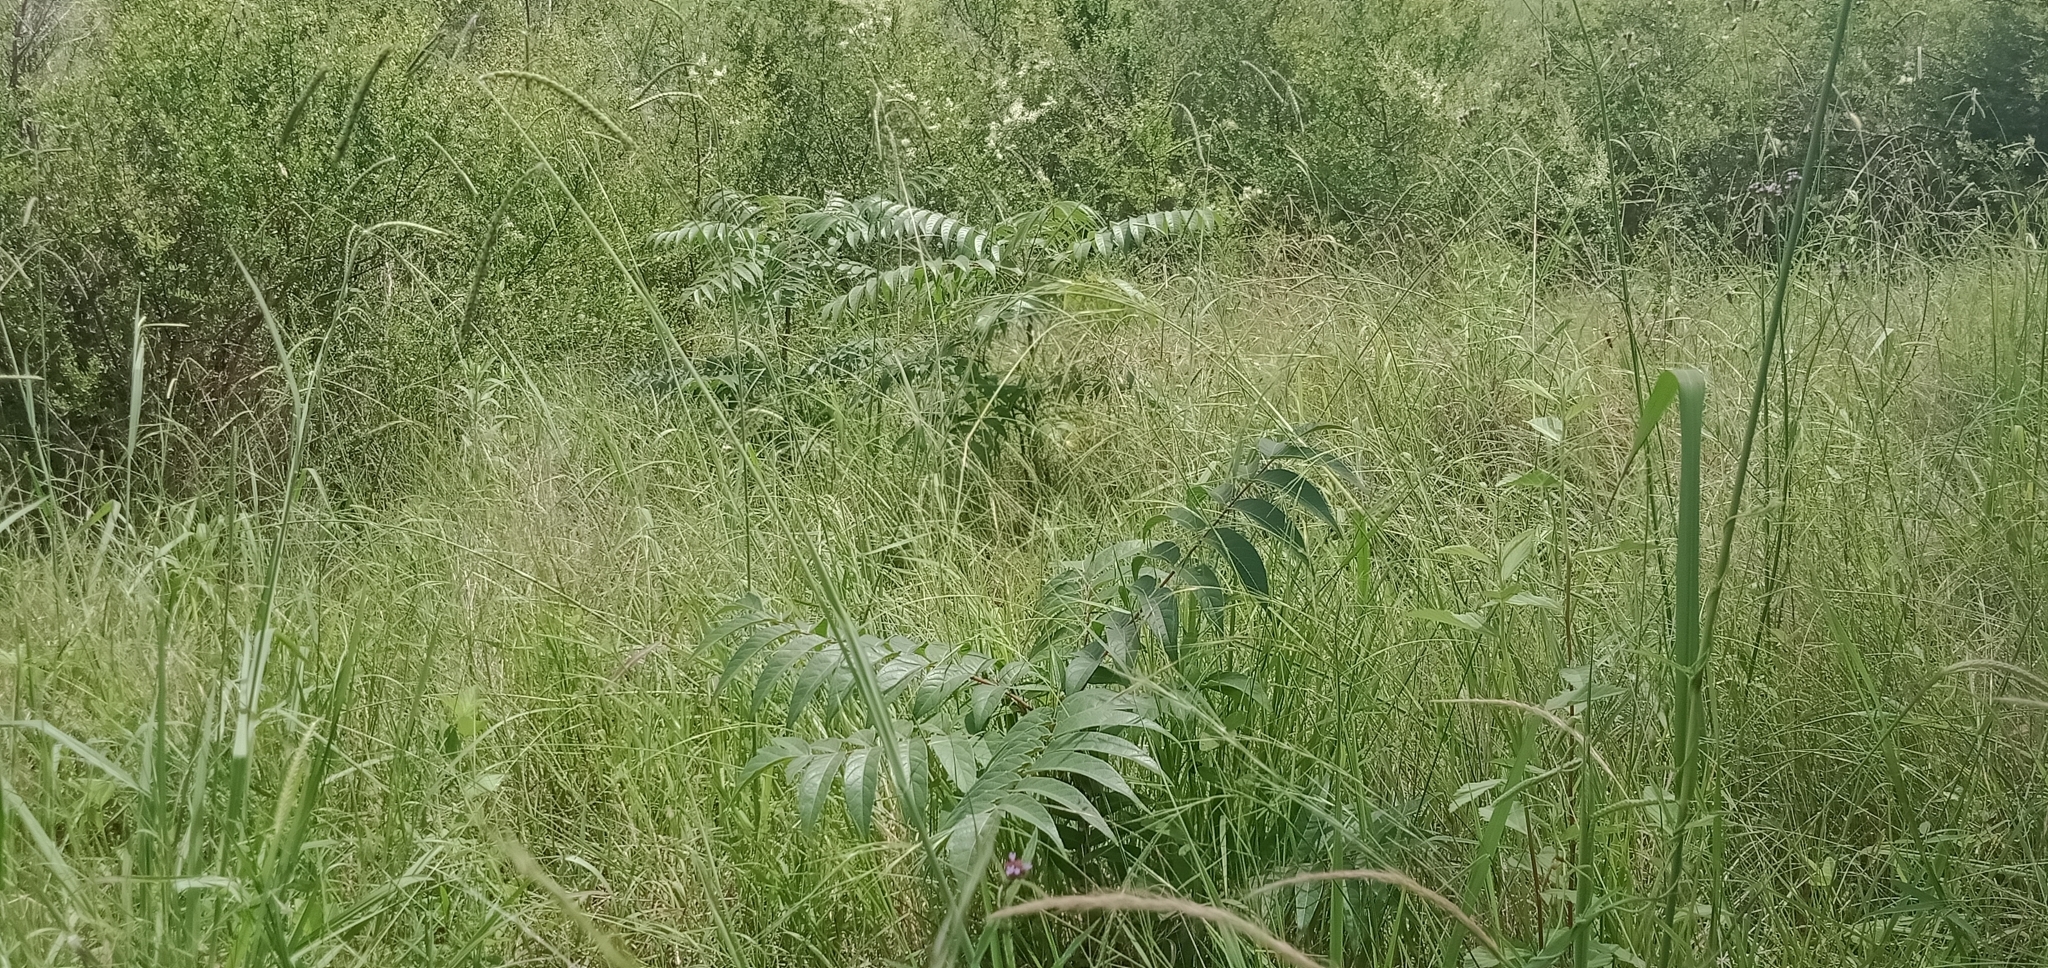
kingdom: Plantae
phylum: Tracheophyta
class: Magnoliopsida
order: Sapindales
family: Simaroubaceae
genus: Ailanthus
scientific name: Ailanthus altissima
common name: Tree-of-heaven
